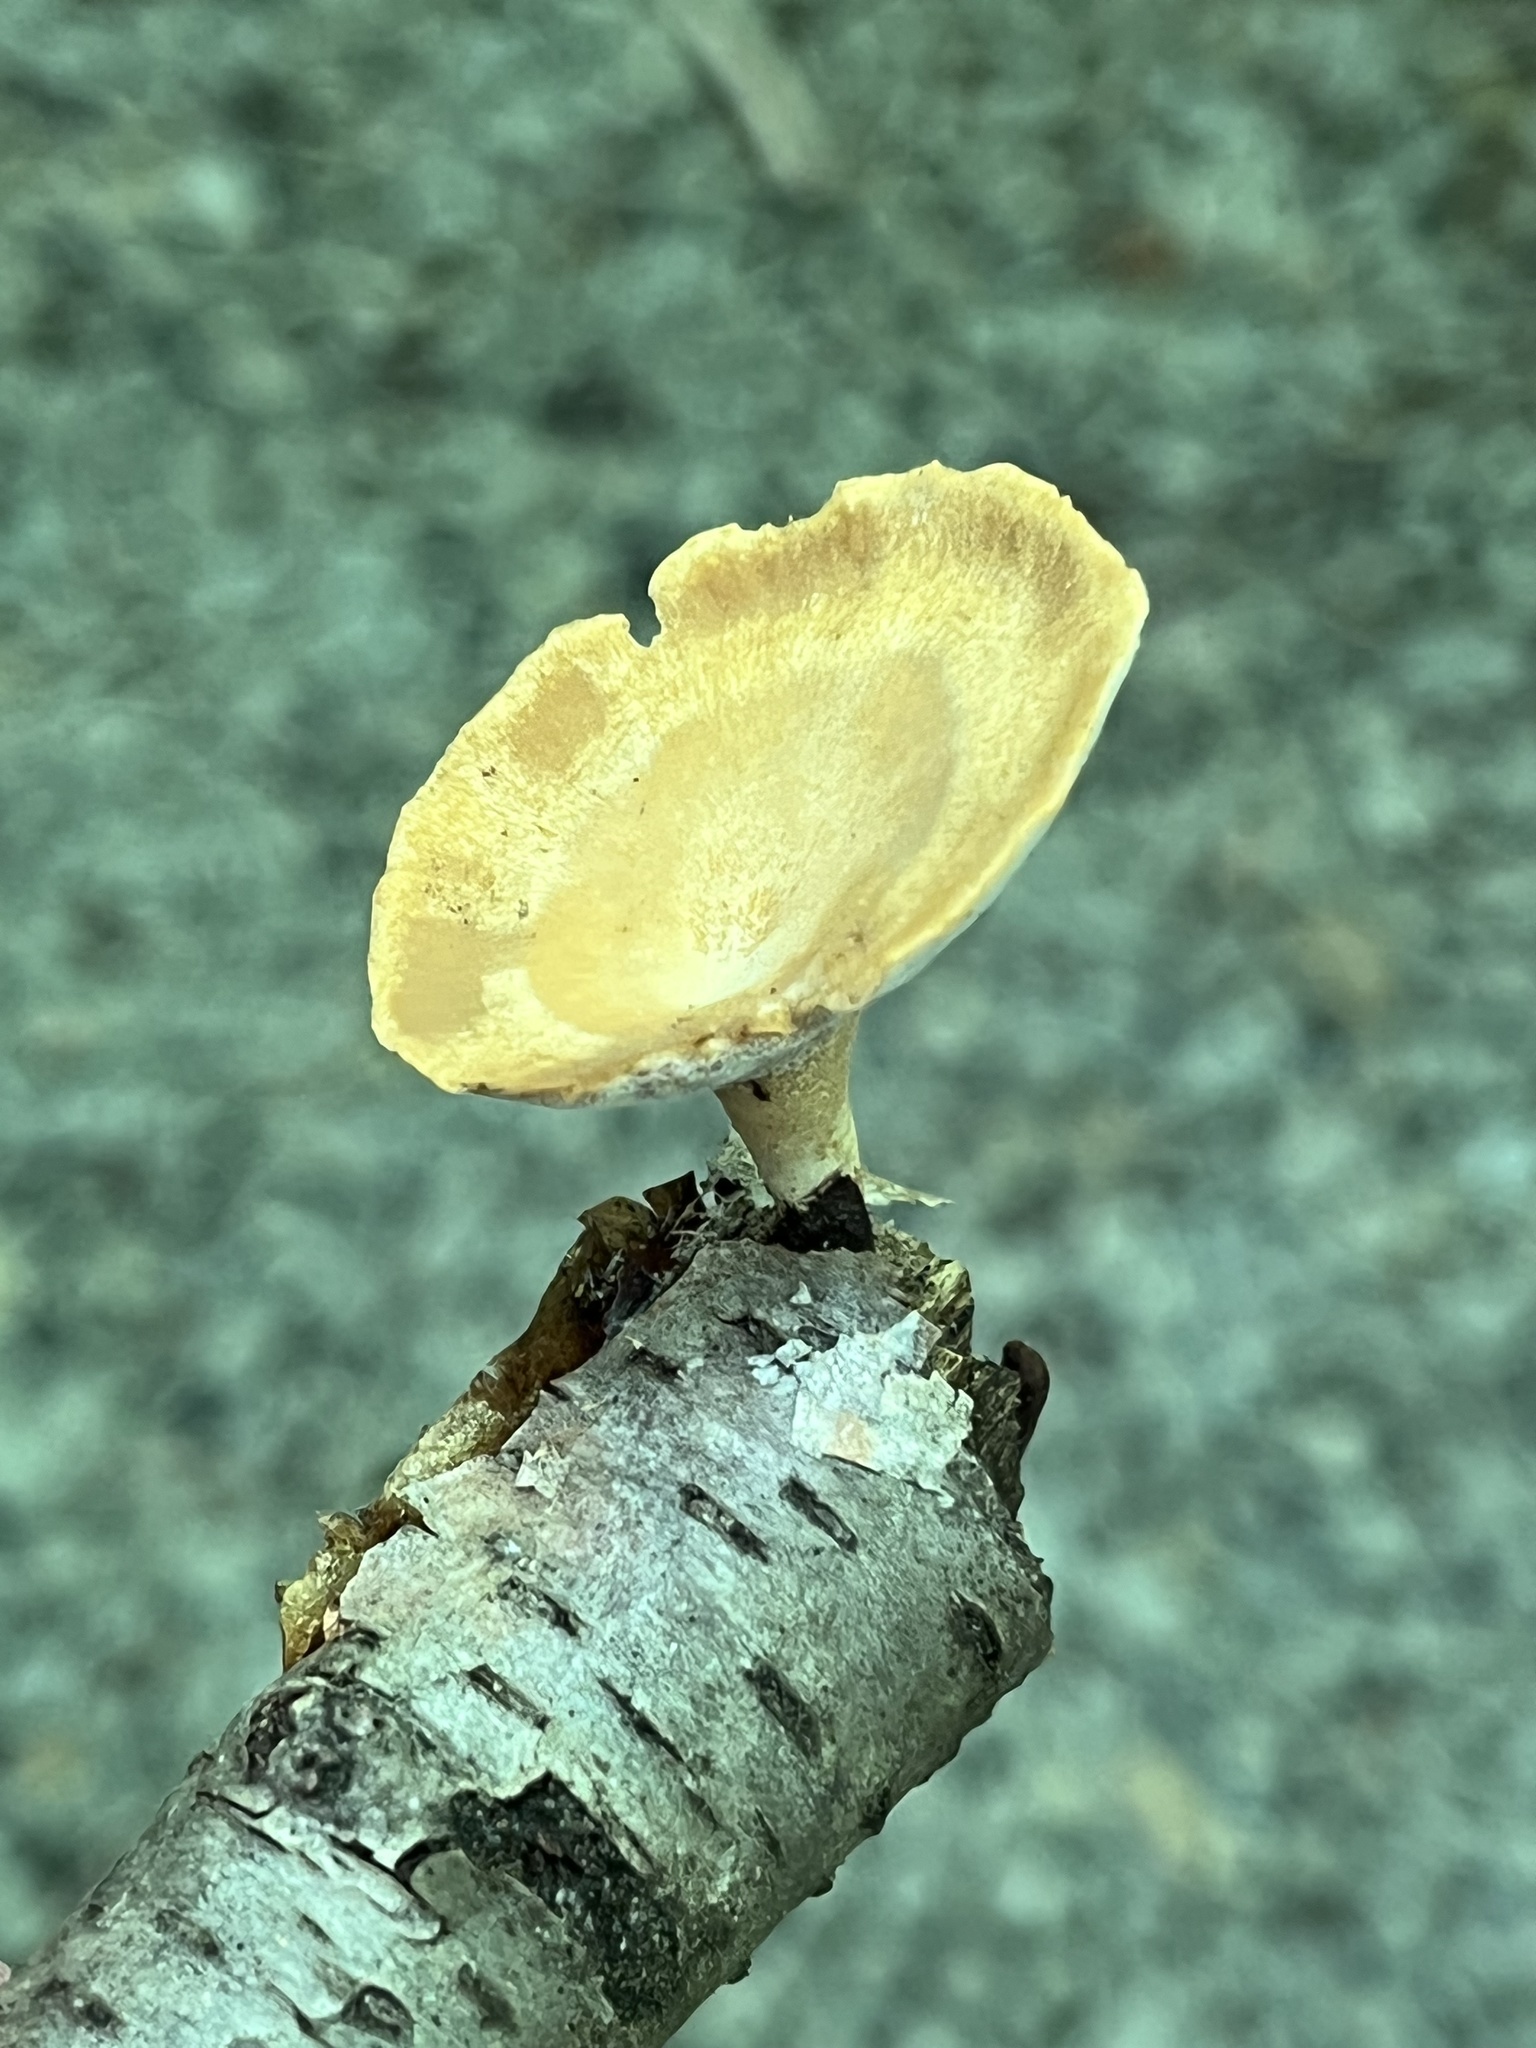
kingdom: Fungi
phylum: Basidiomycota
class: Agaricomycetes
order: Polyporales
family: Polyporaceae
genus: Cerioporus
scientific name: Cerioporus leptocephalus
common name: Blackfoot polypore
